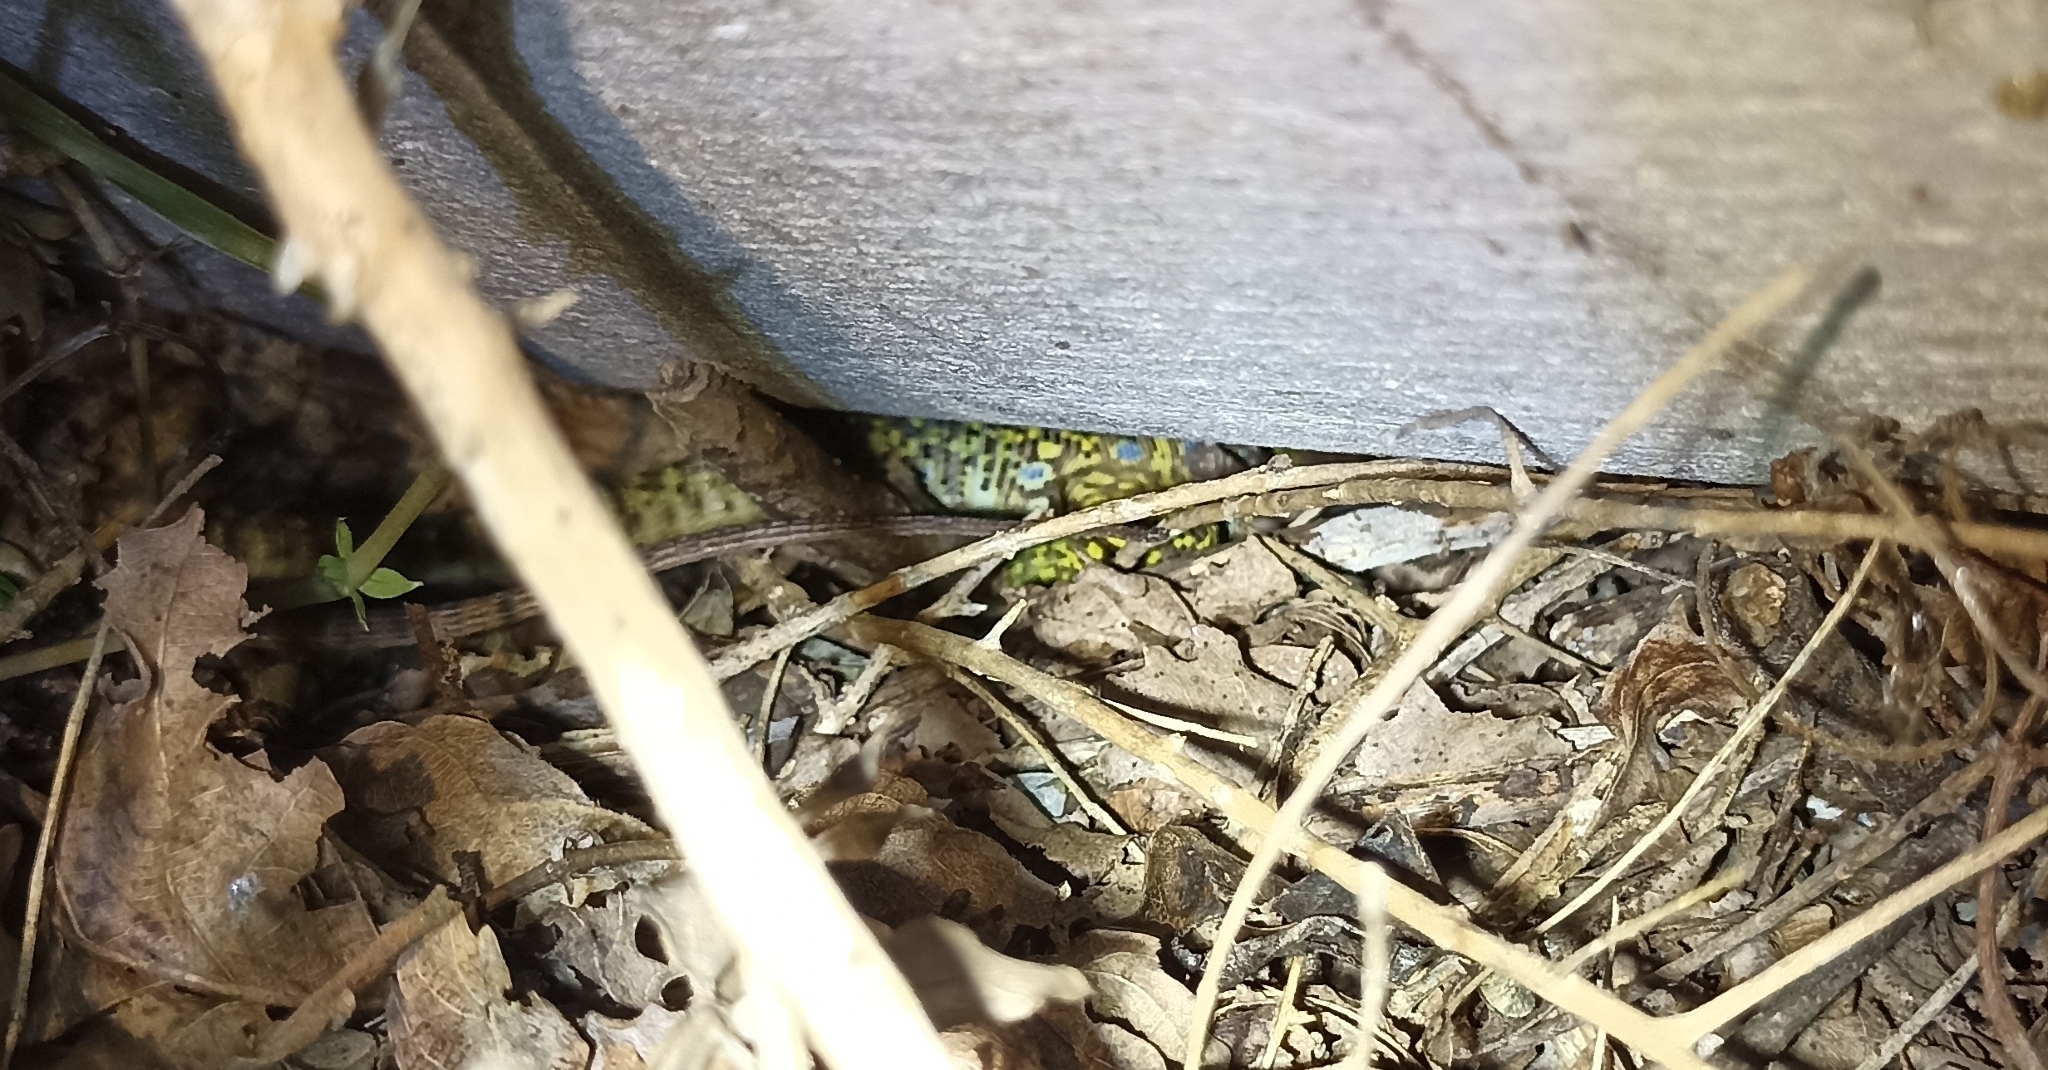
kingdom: Animalia
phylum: Chordata
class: Squamata
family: Lacertidae
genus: Timon
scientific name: Timon lepidus
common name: Ocellated lizard
